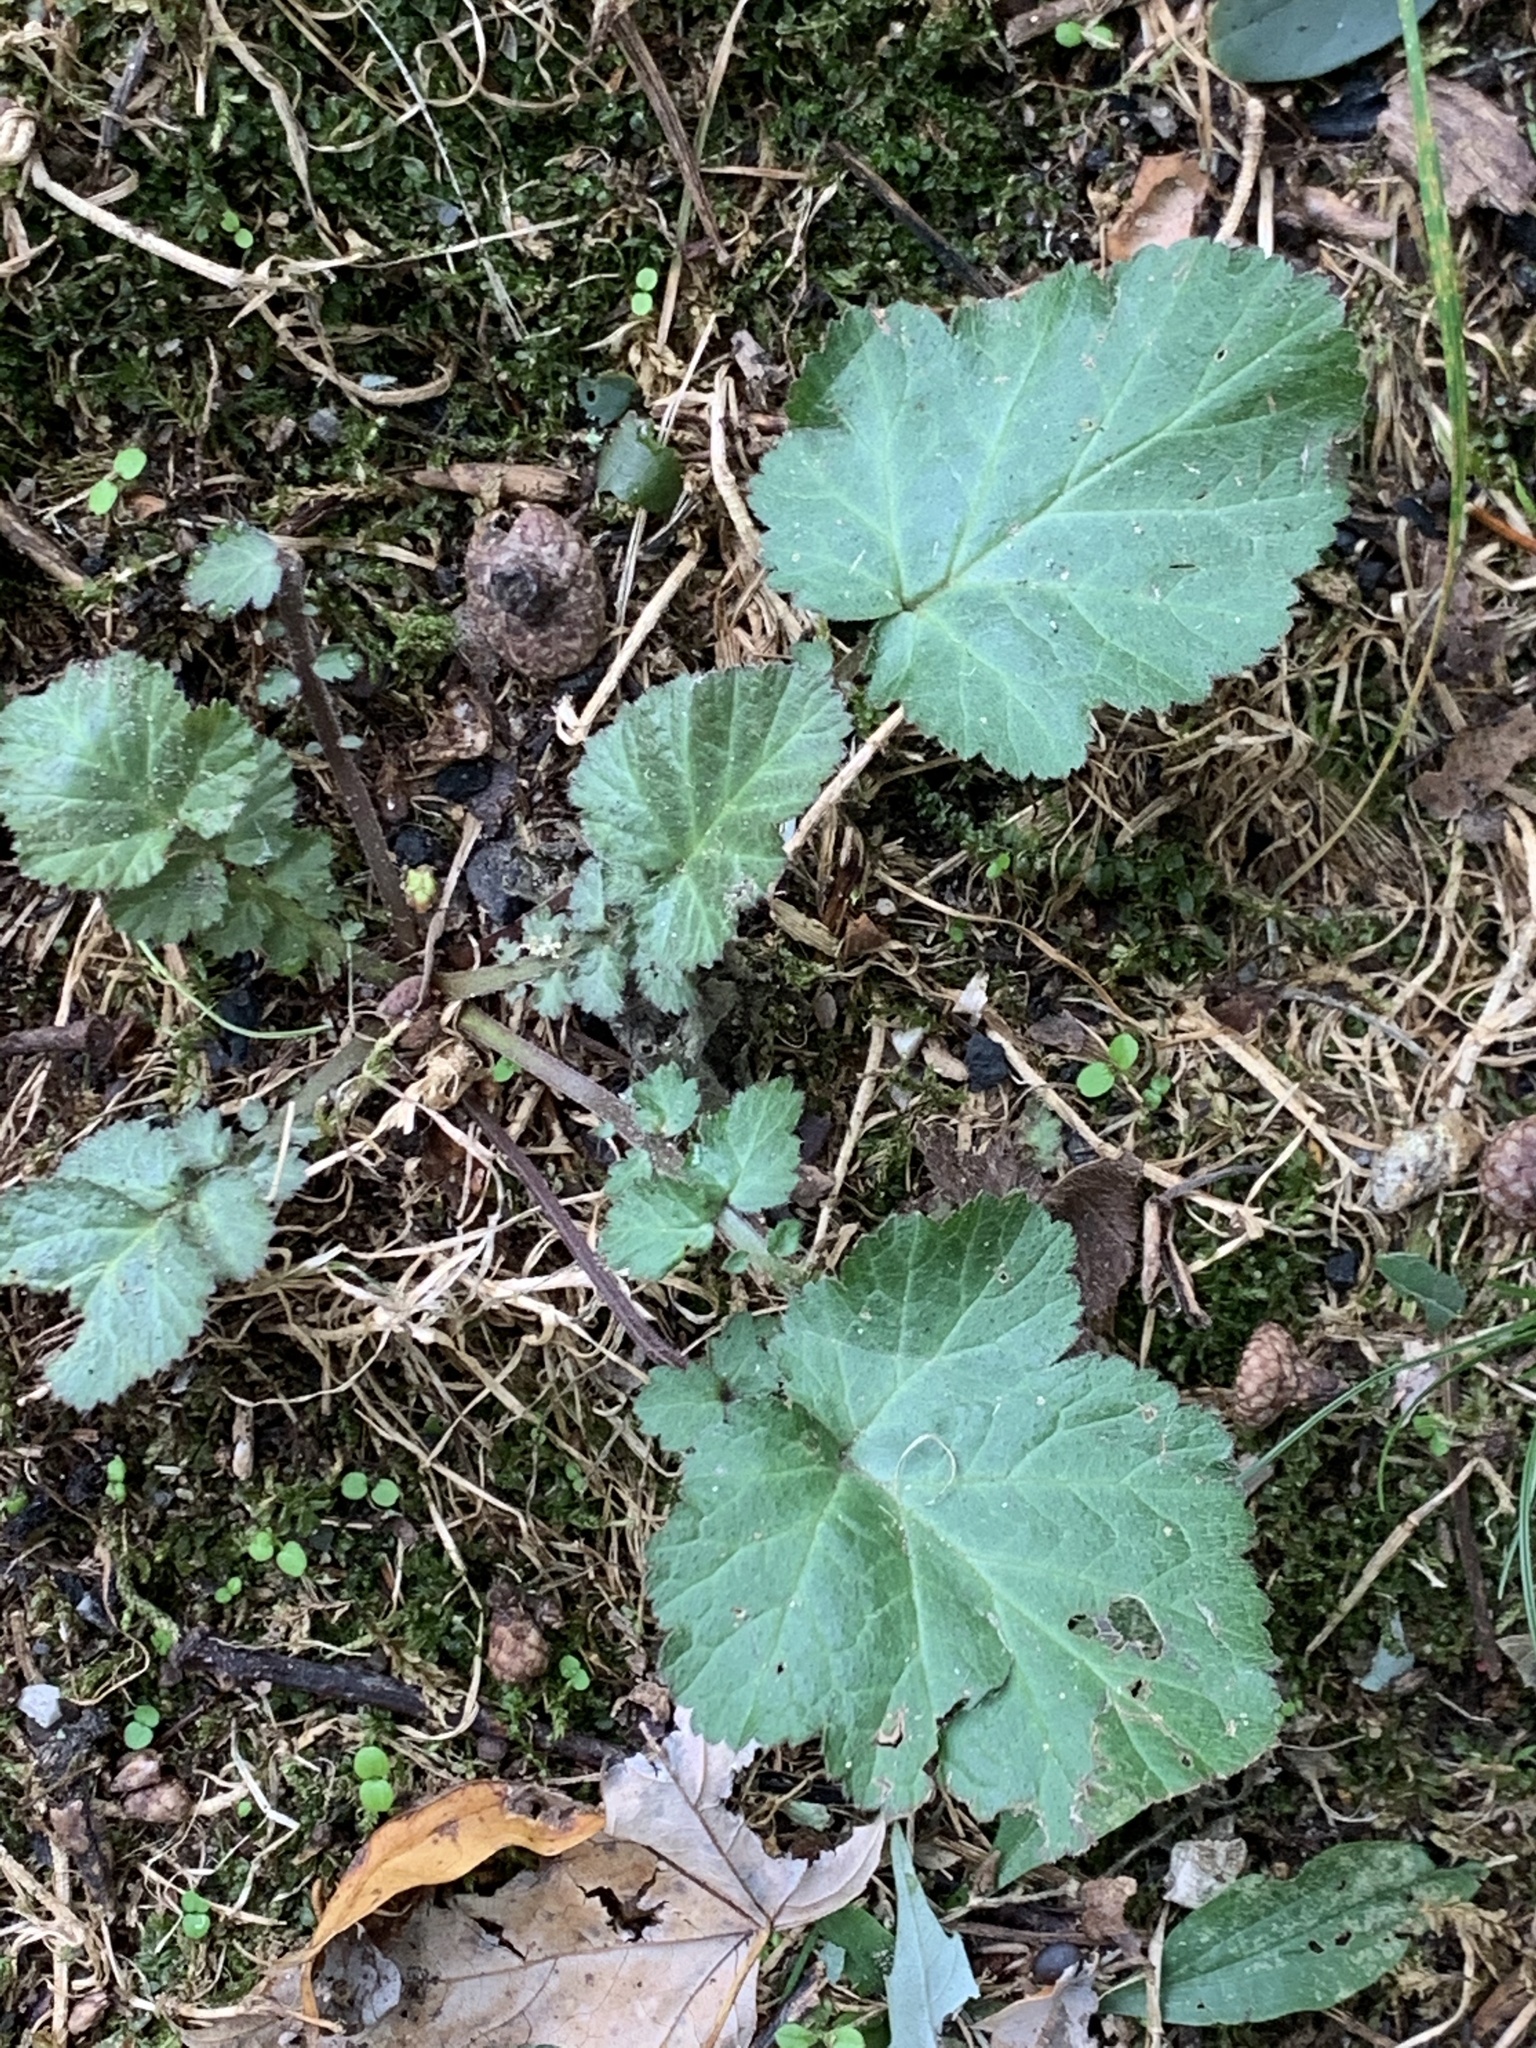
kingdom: Plantae
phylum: Tracheophyta
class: Magnoliopsida
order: Rosales
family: Rosaceae
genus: Geum
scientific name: Geum canadense
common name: White avens
